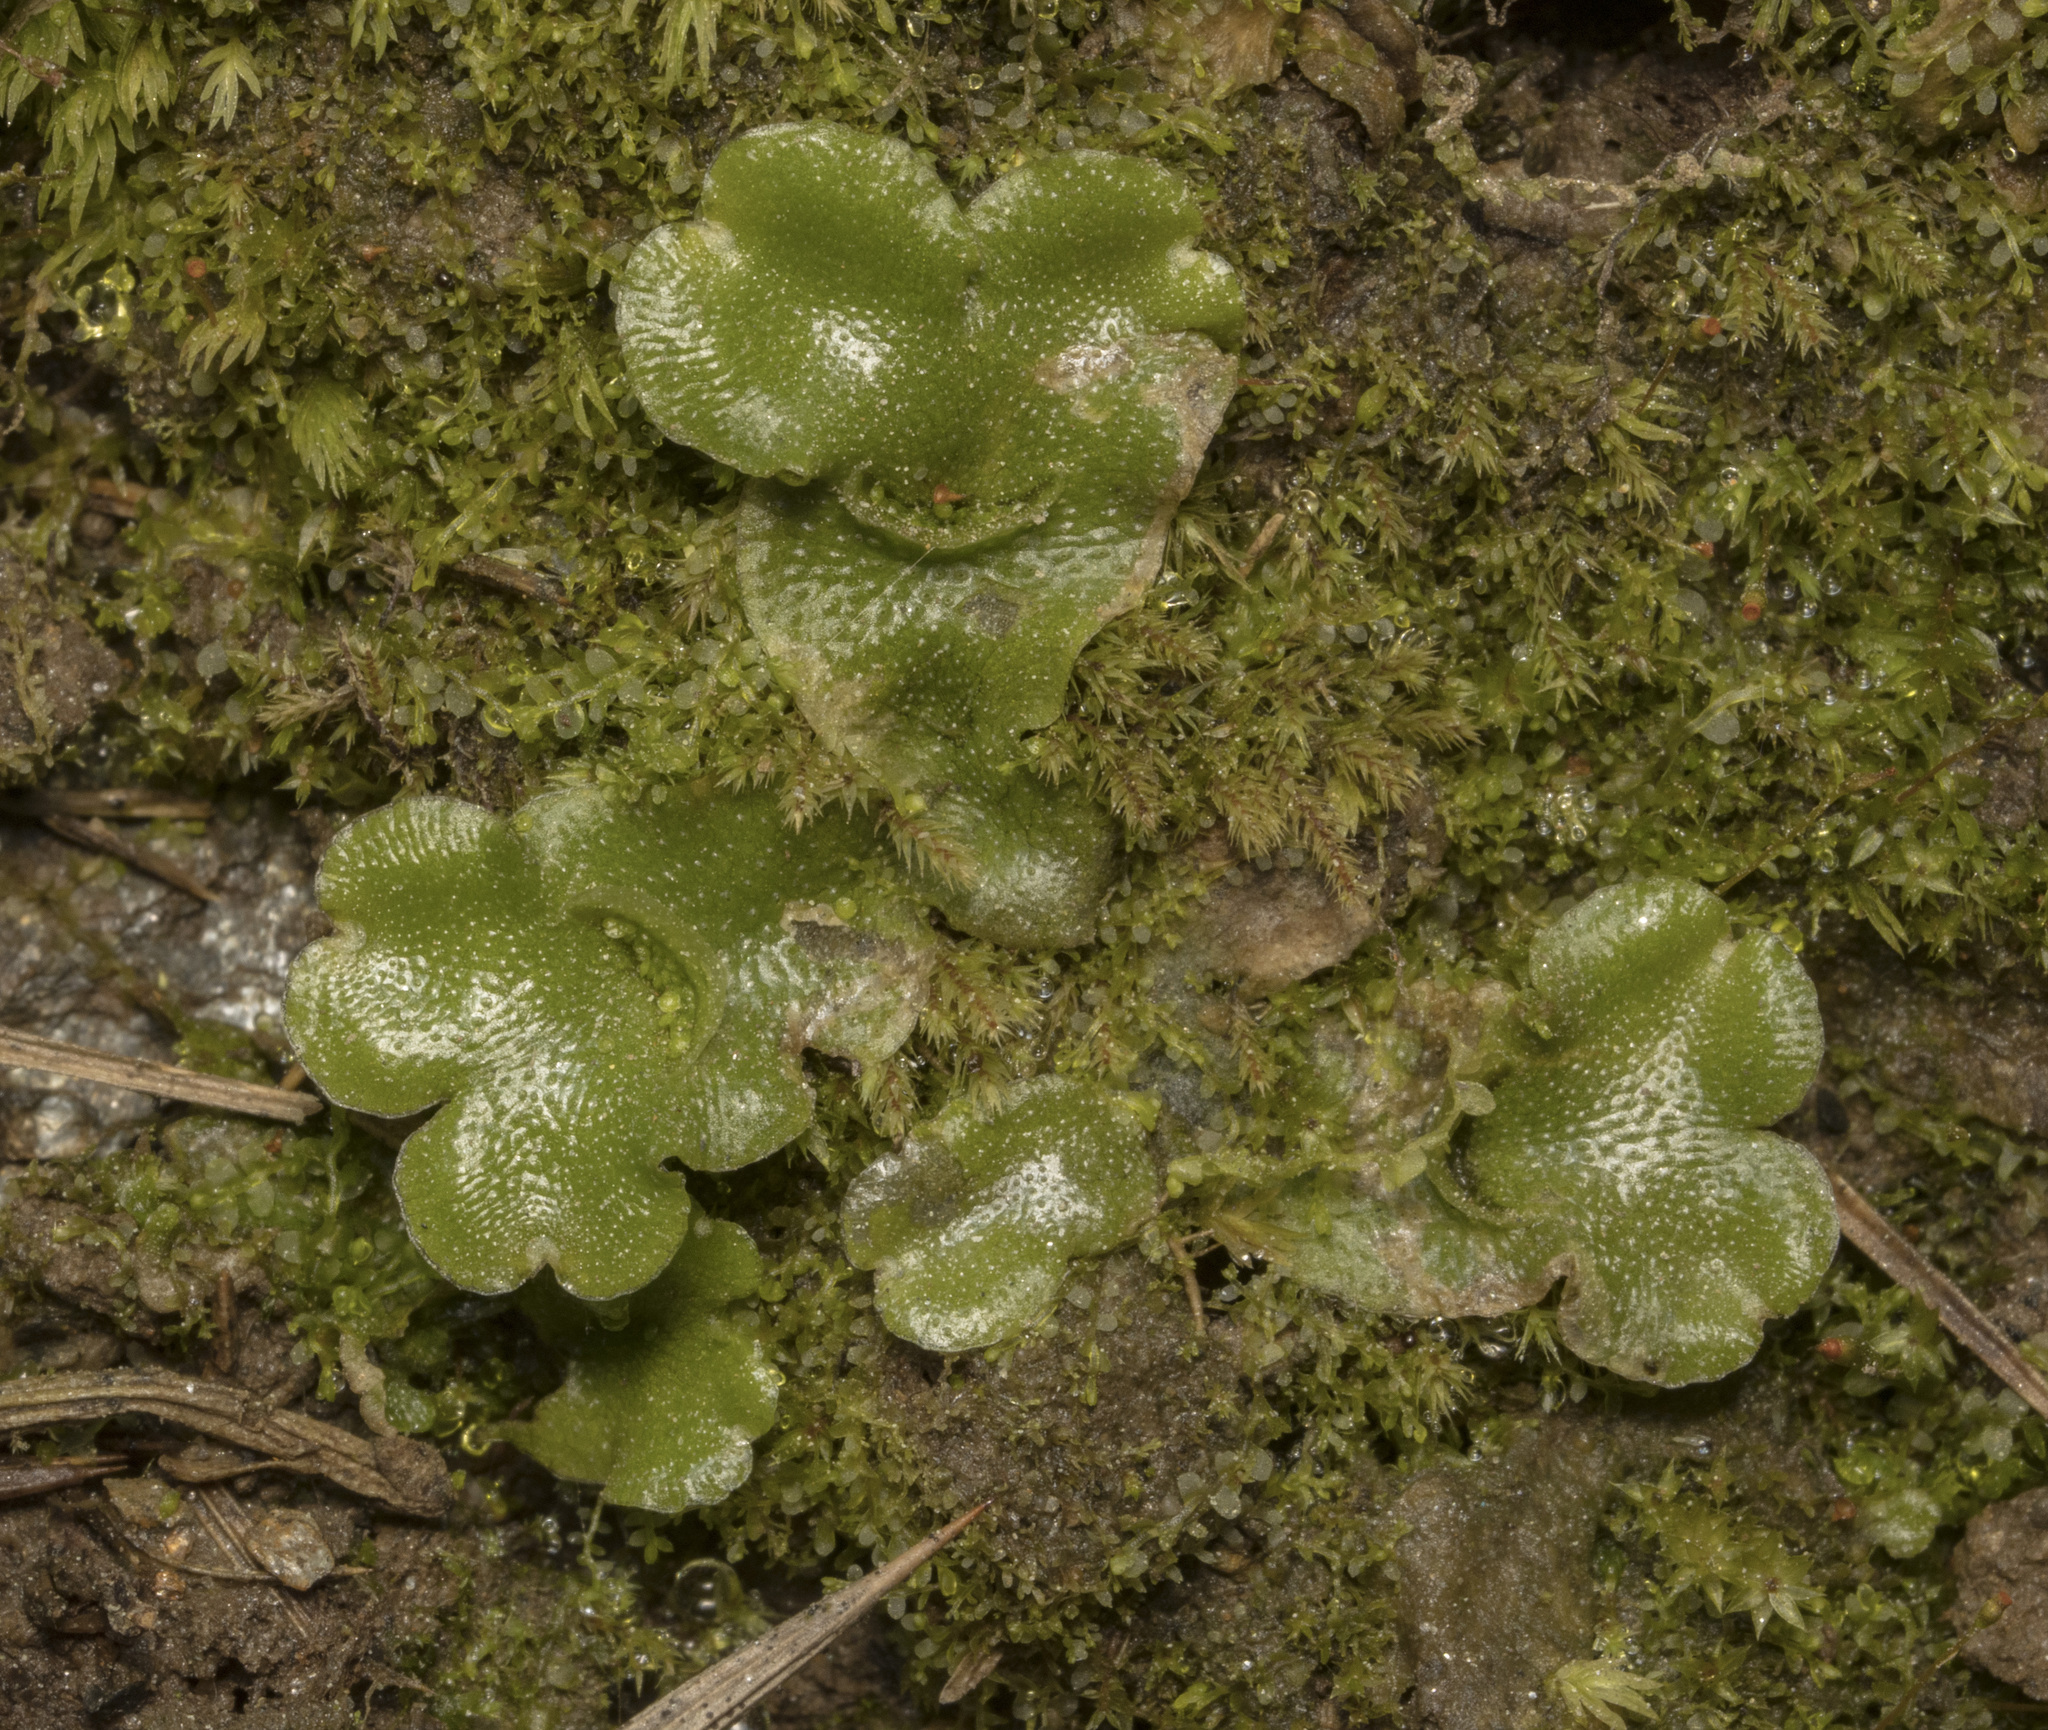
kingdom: Plantae
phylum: Marchantiophyta
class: Marchantiopsida
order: Lunulariales
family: Lunulariaceae
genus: Lunularia
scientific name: Lunularia cruciata
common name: Crescent-cup liverwort
